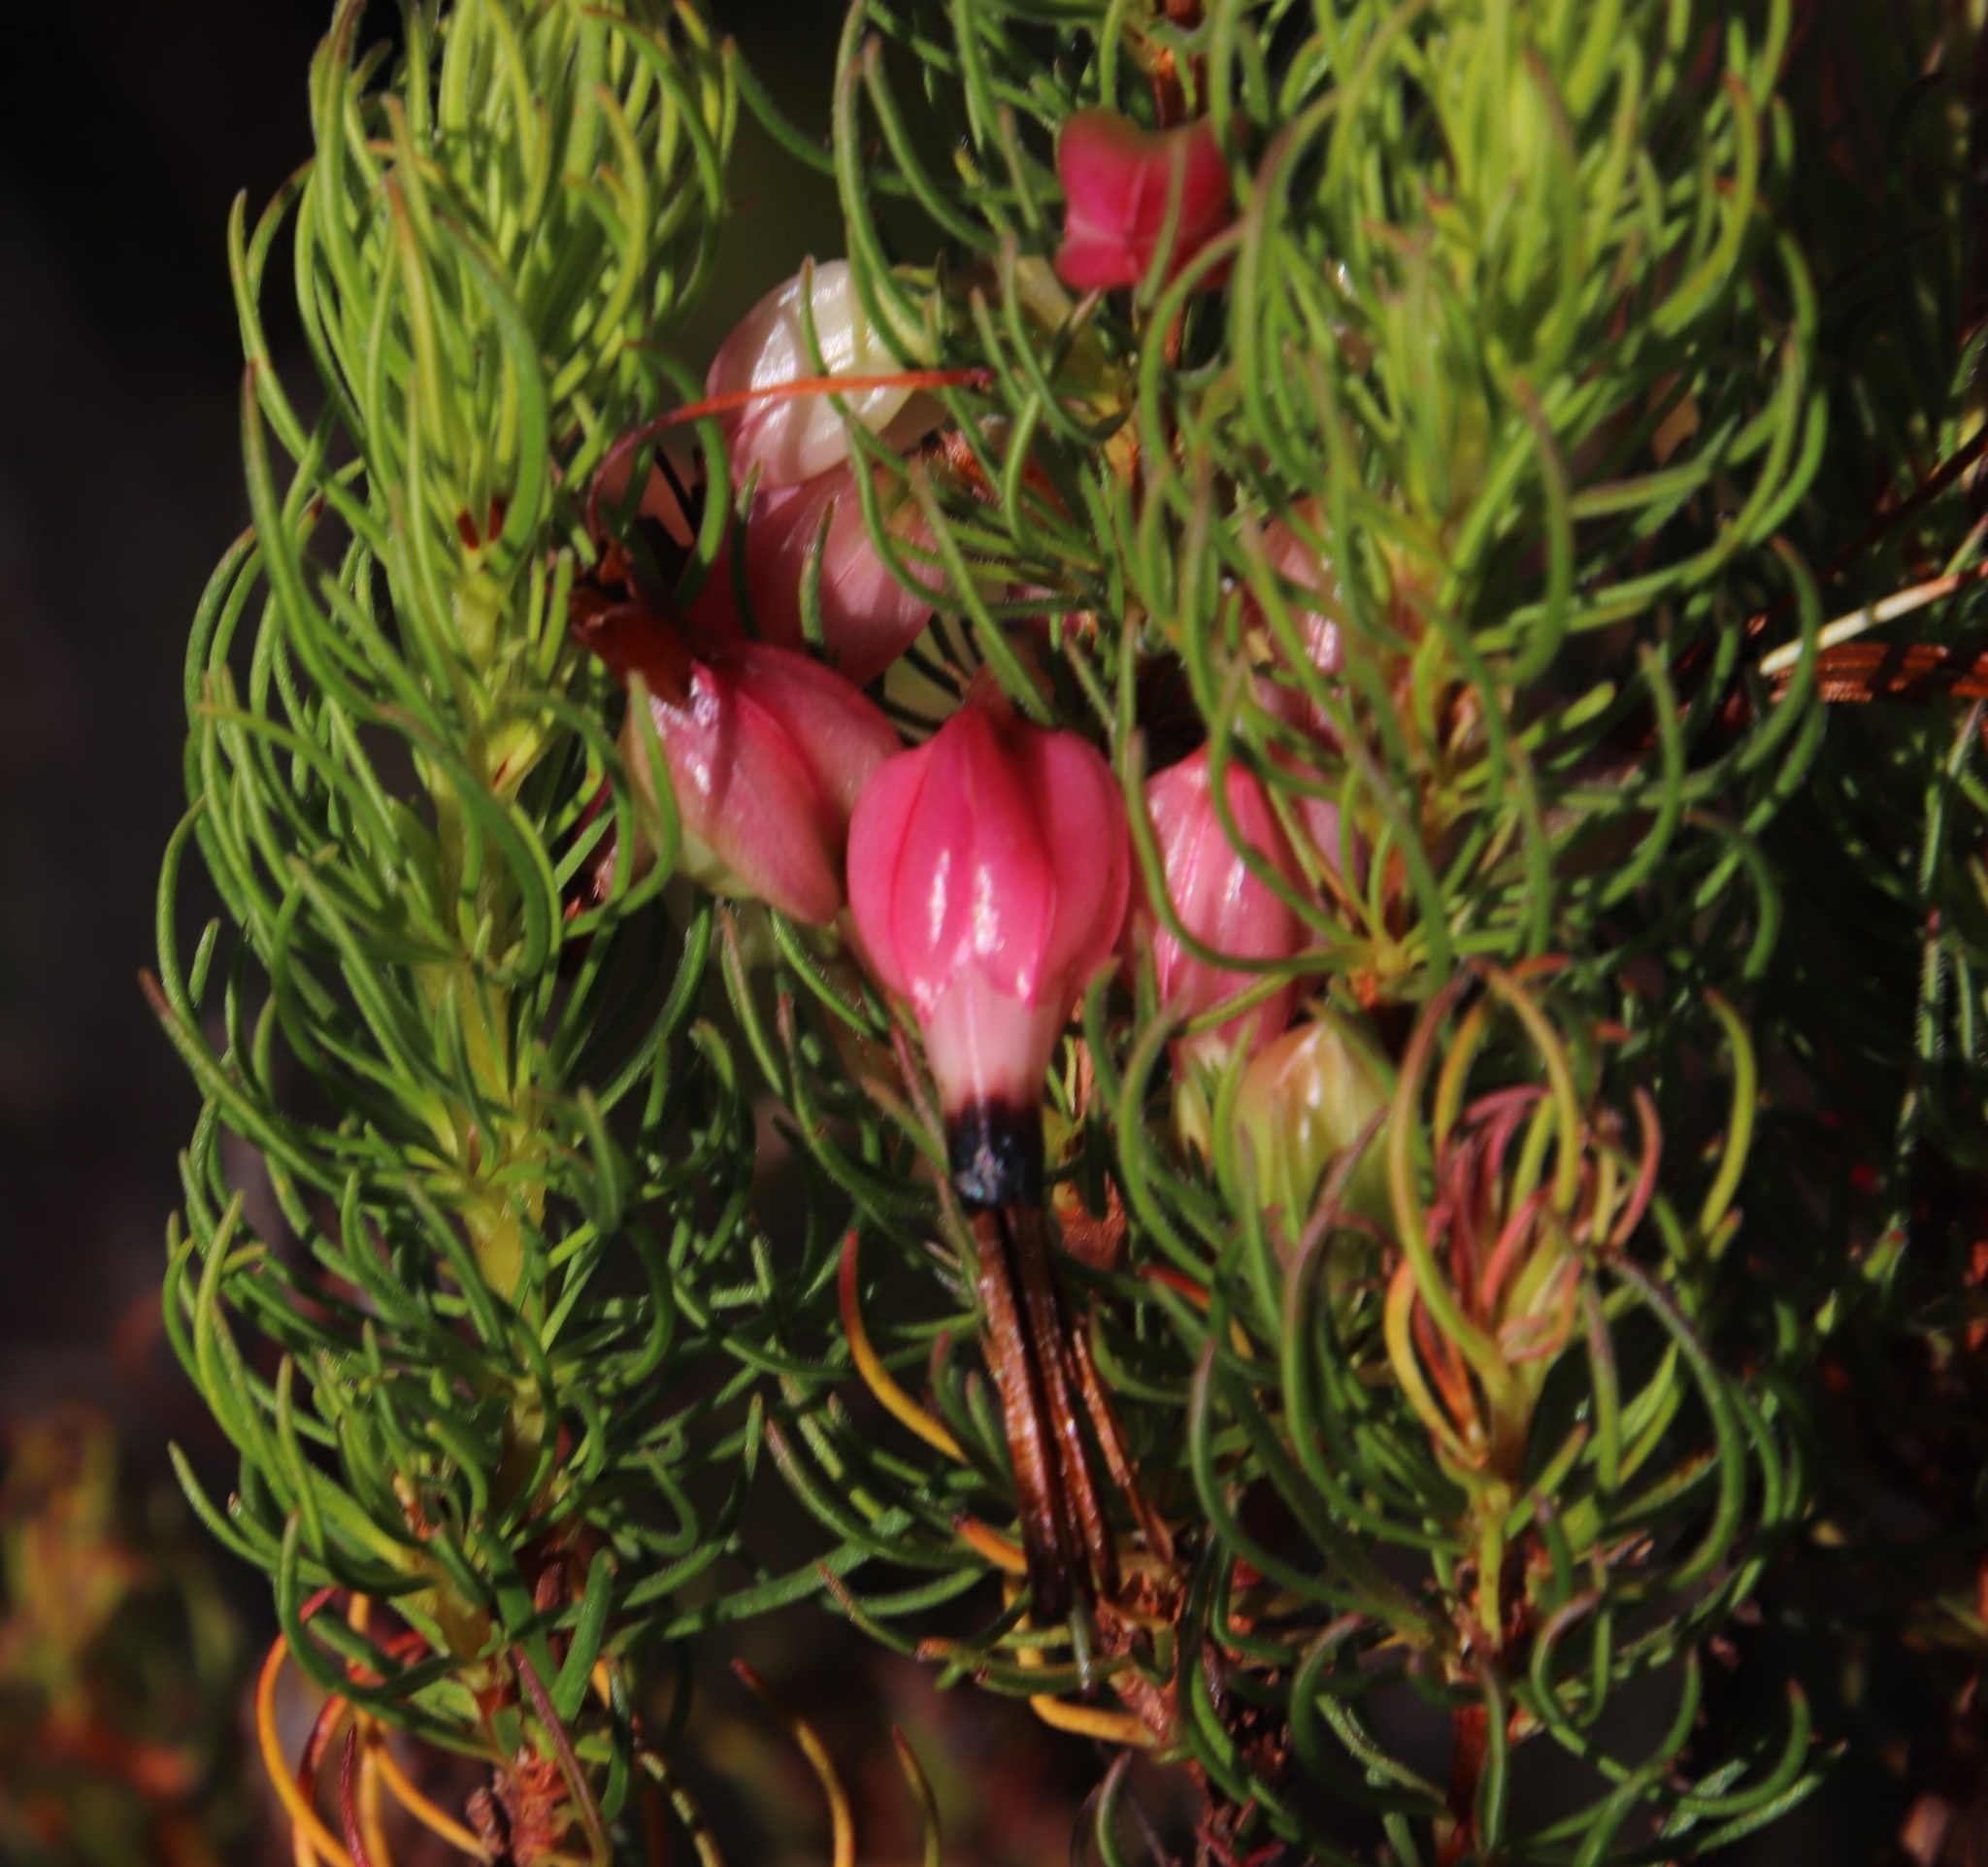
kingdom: Plantae
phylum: Tracheophyta
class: Magnoliopsida
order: Ericales
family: Ericaceae
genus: Erica
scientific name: Erica plukenetii
